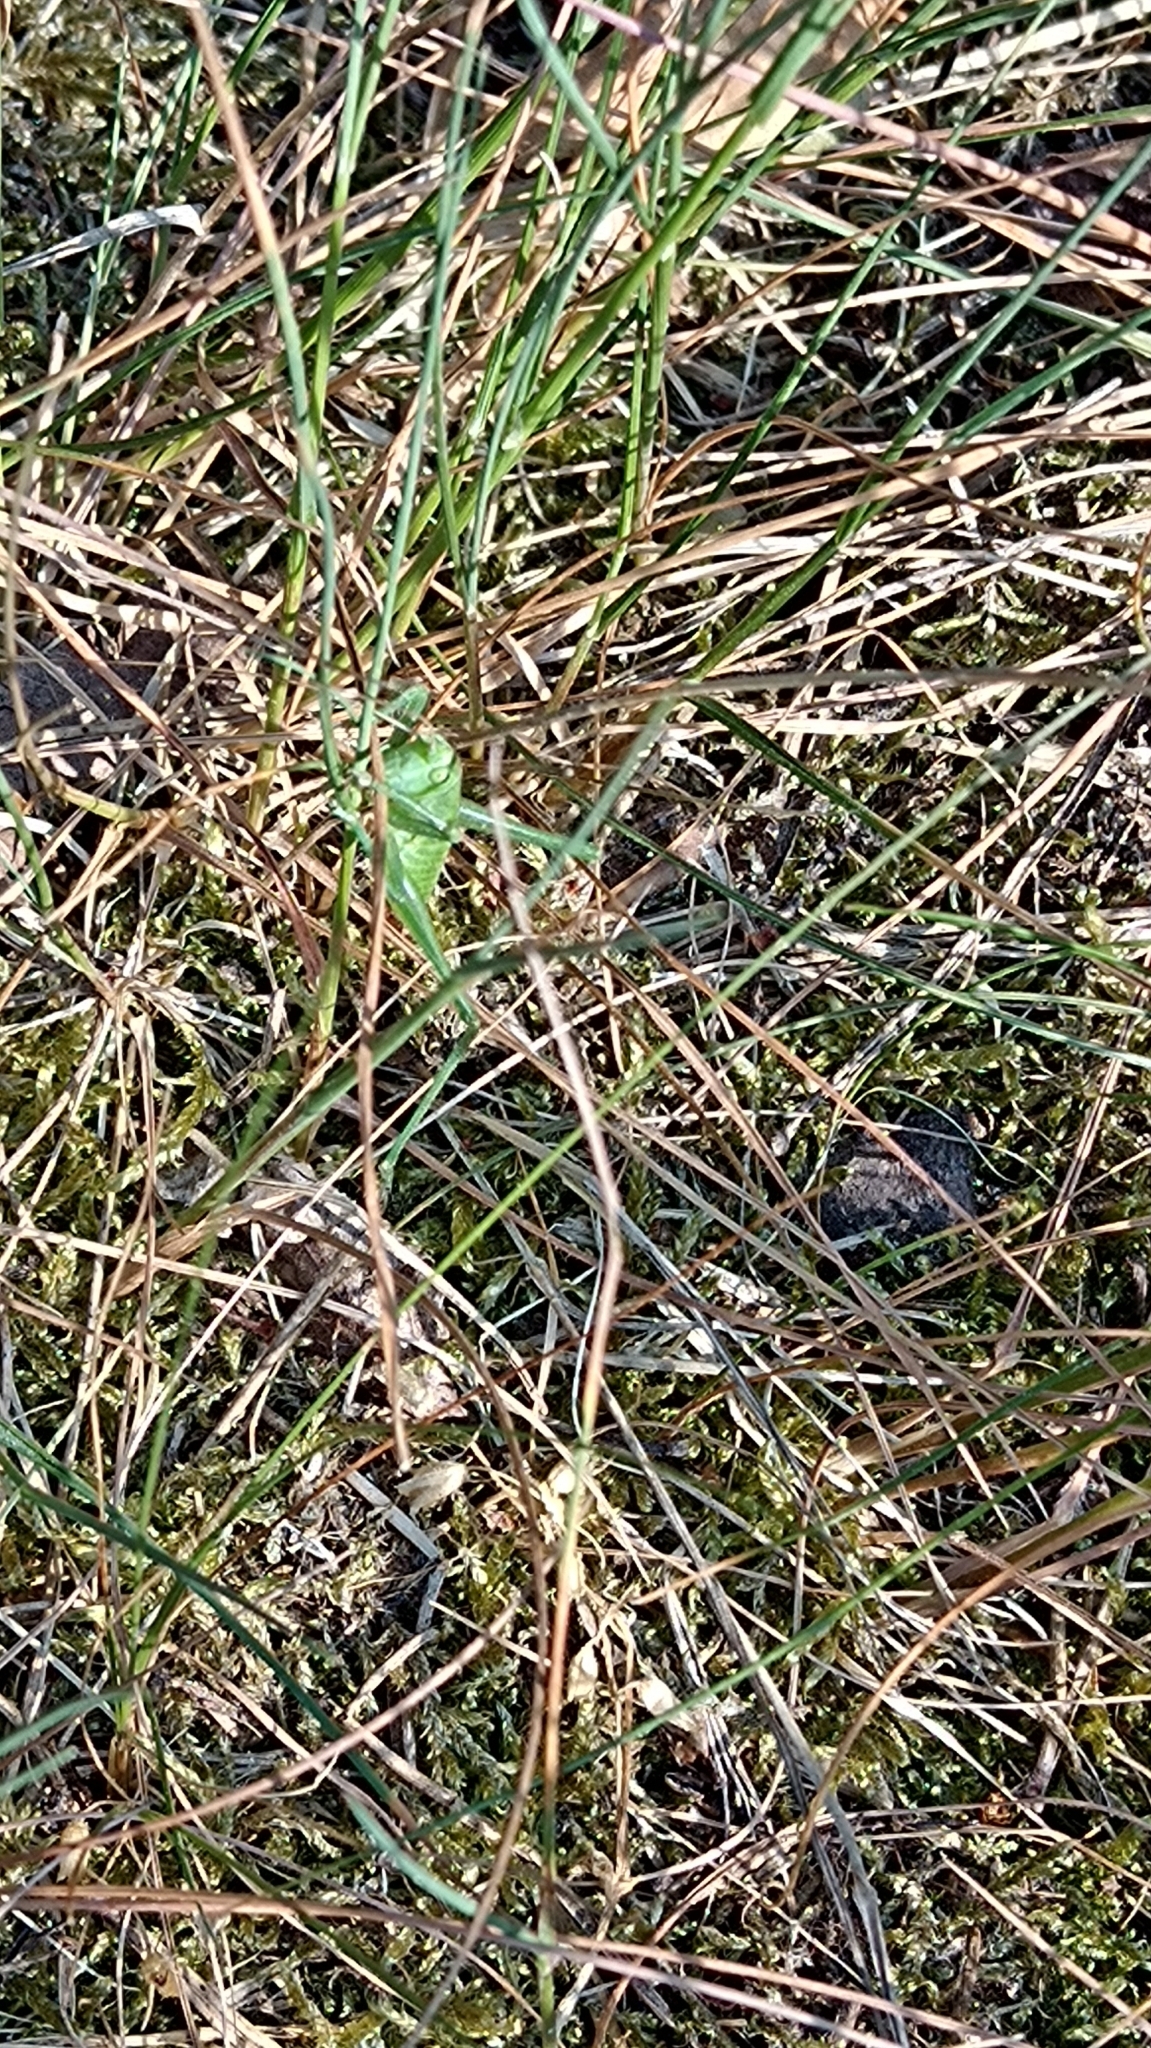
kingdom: Animalia
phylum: Arthropoda
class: Insecta
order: Orthoptera
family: Tettigoniidae
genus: Tettigonia
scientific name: Tettigonia viridissima
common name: Great green bush-cricket
